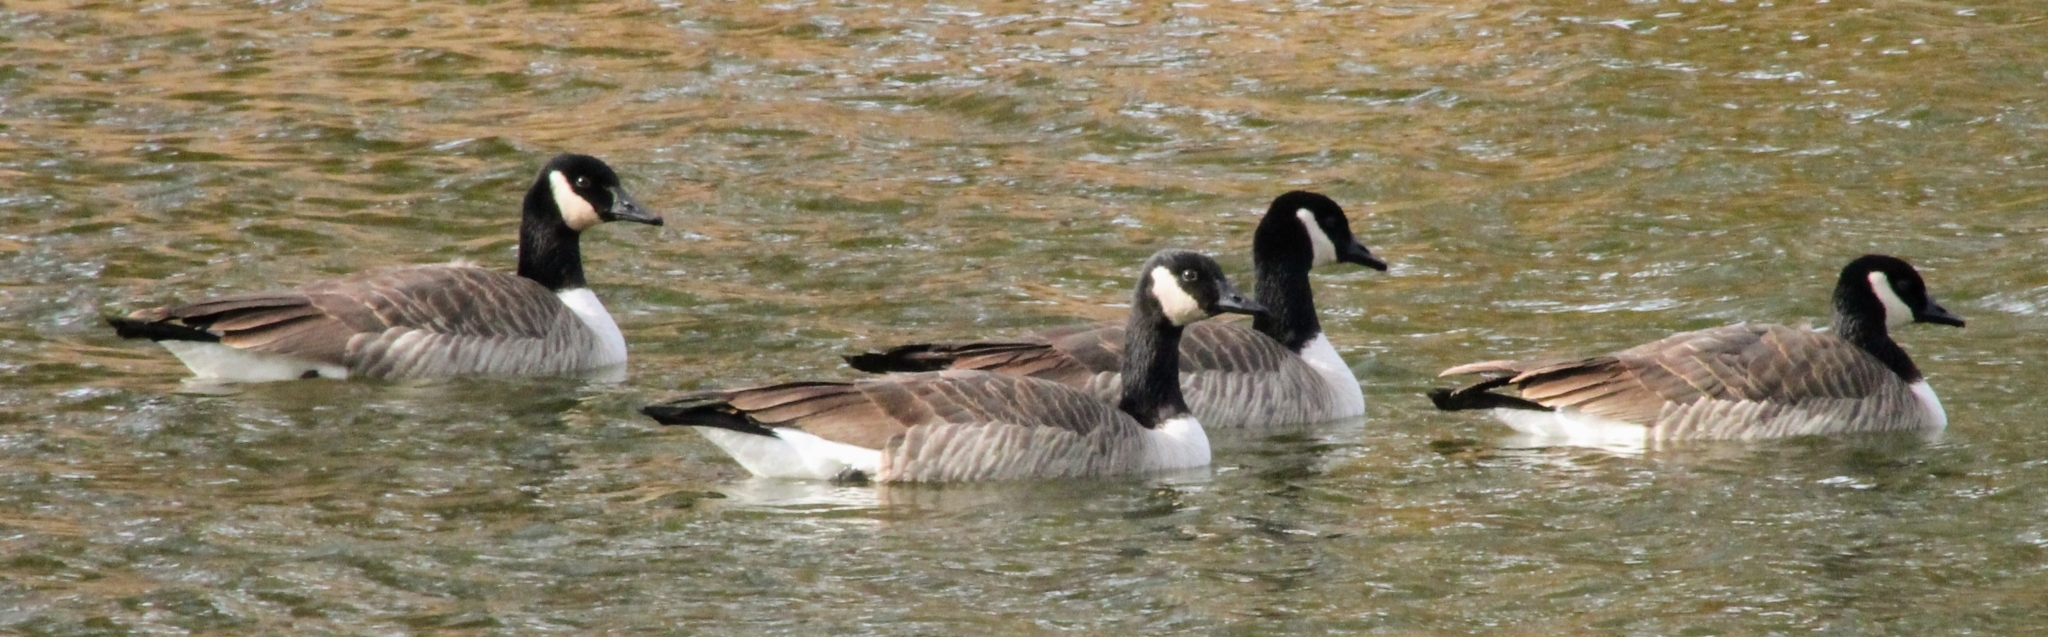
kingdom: Animalia
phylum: Chordata
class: Aves
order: Anseriformes
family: Anatidae
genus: Branta
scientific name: Branta canadensis
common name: Canada goose
